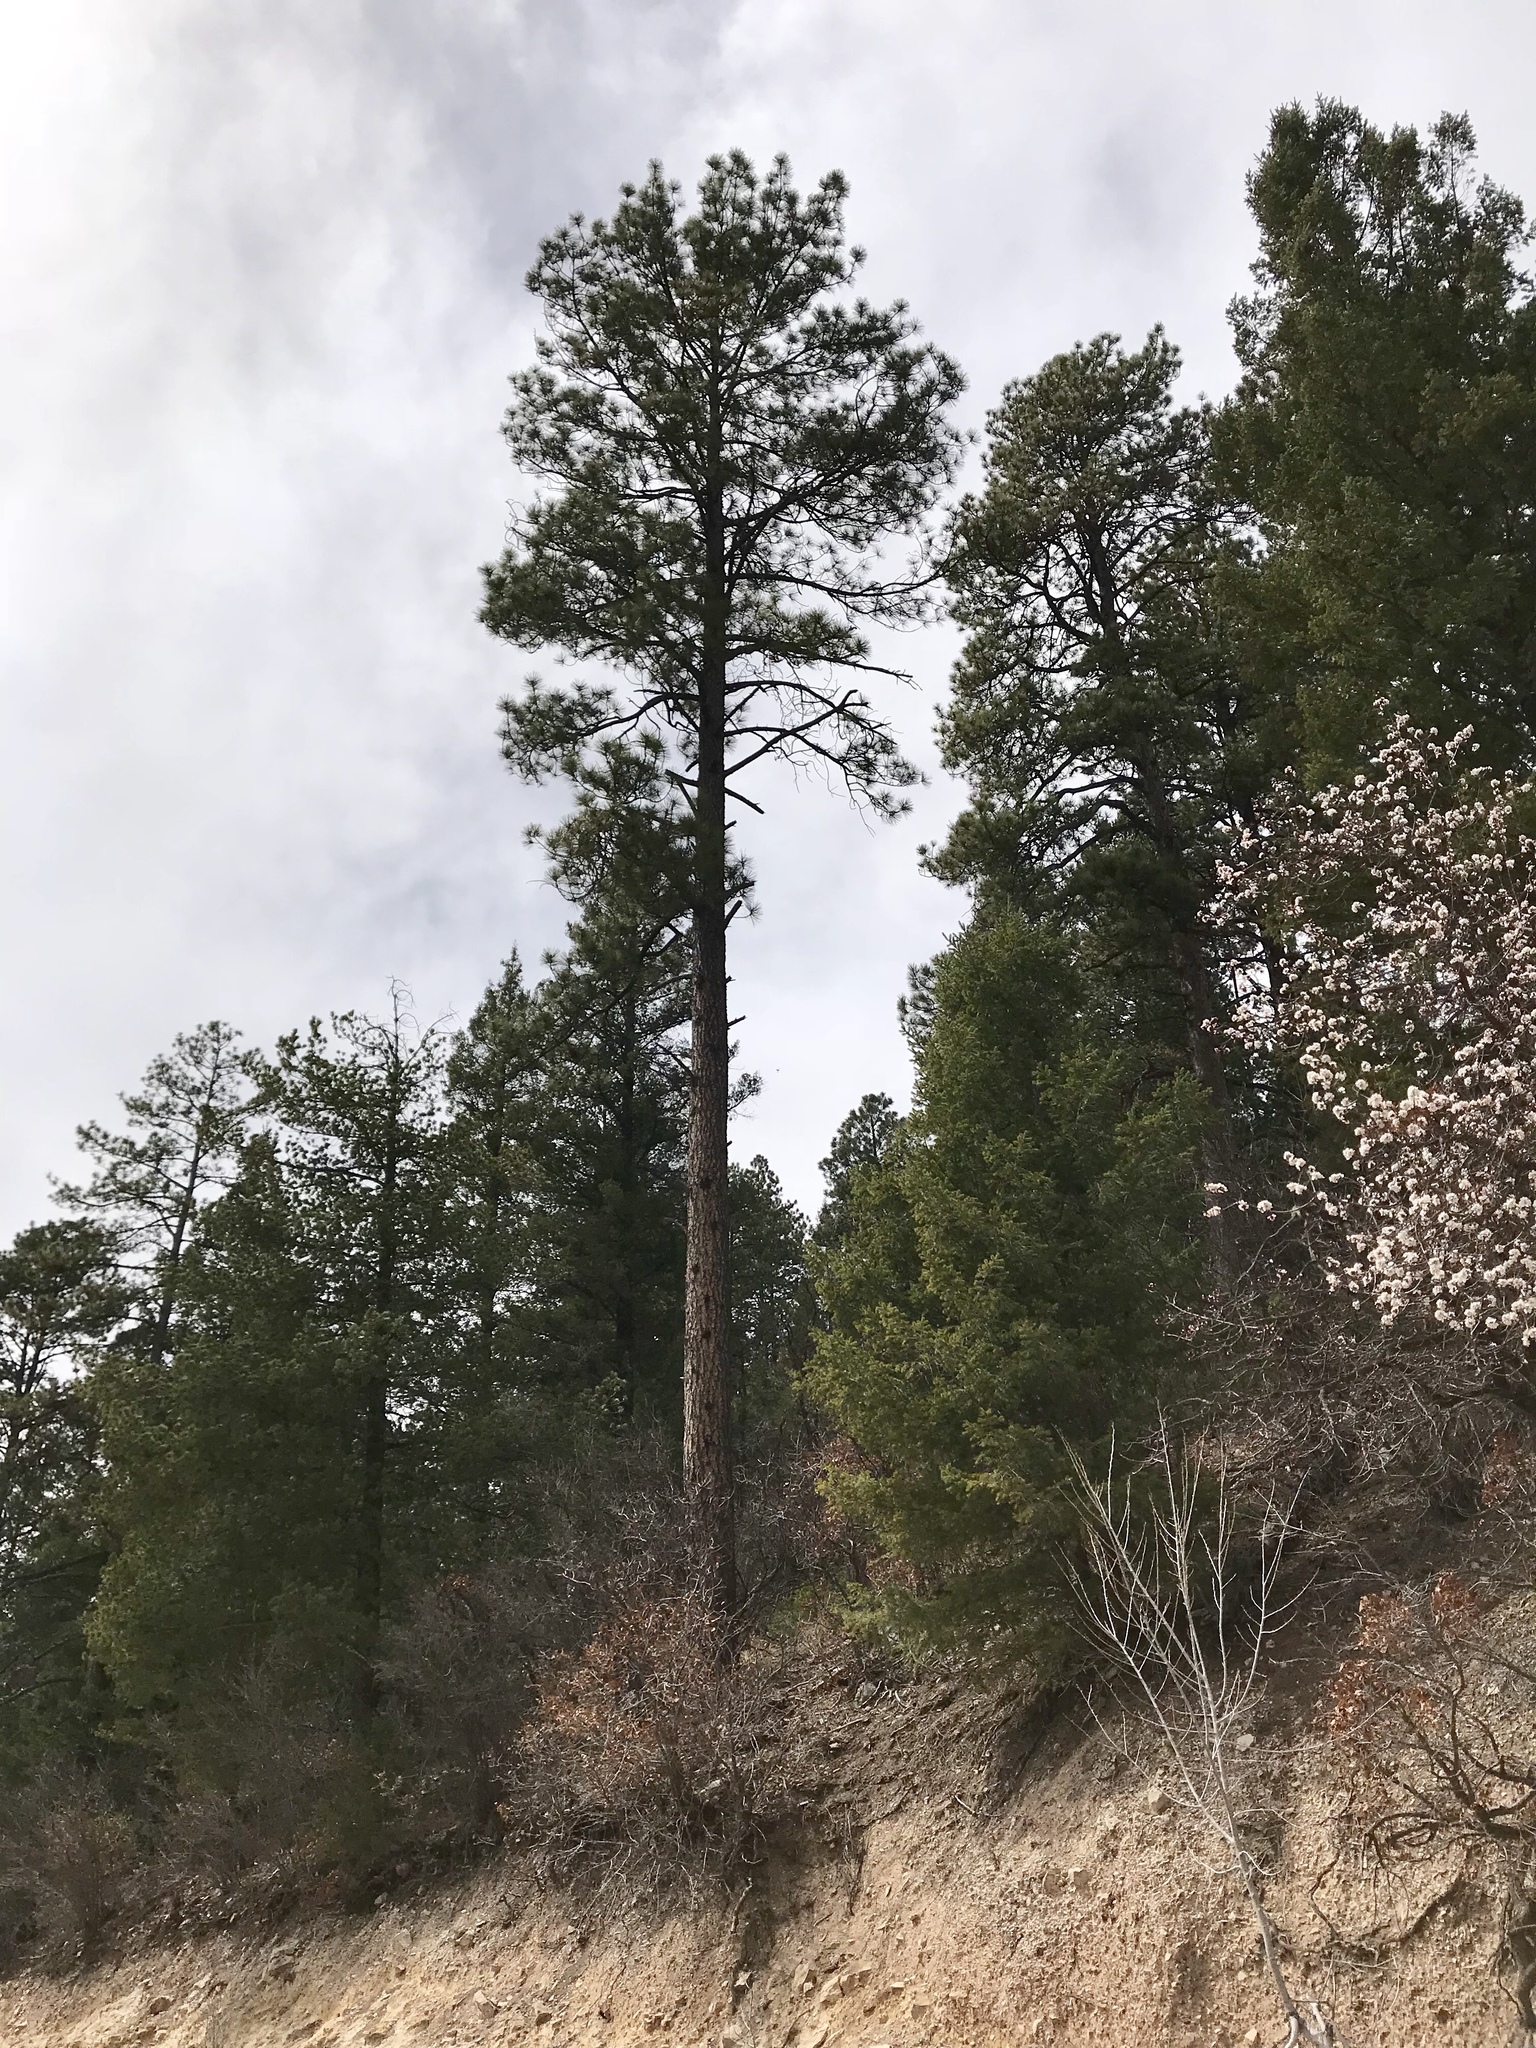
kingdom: Plantae
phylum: Tracheophyta
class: Pinopsida
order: Pinales
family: Pinaceae
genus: Pinus
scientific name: Pinus ponderosa
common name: Western yellow-pine
